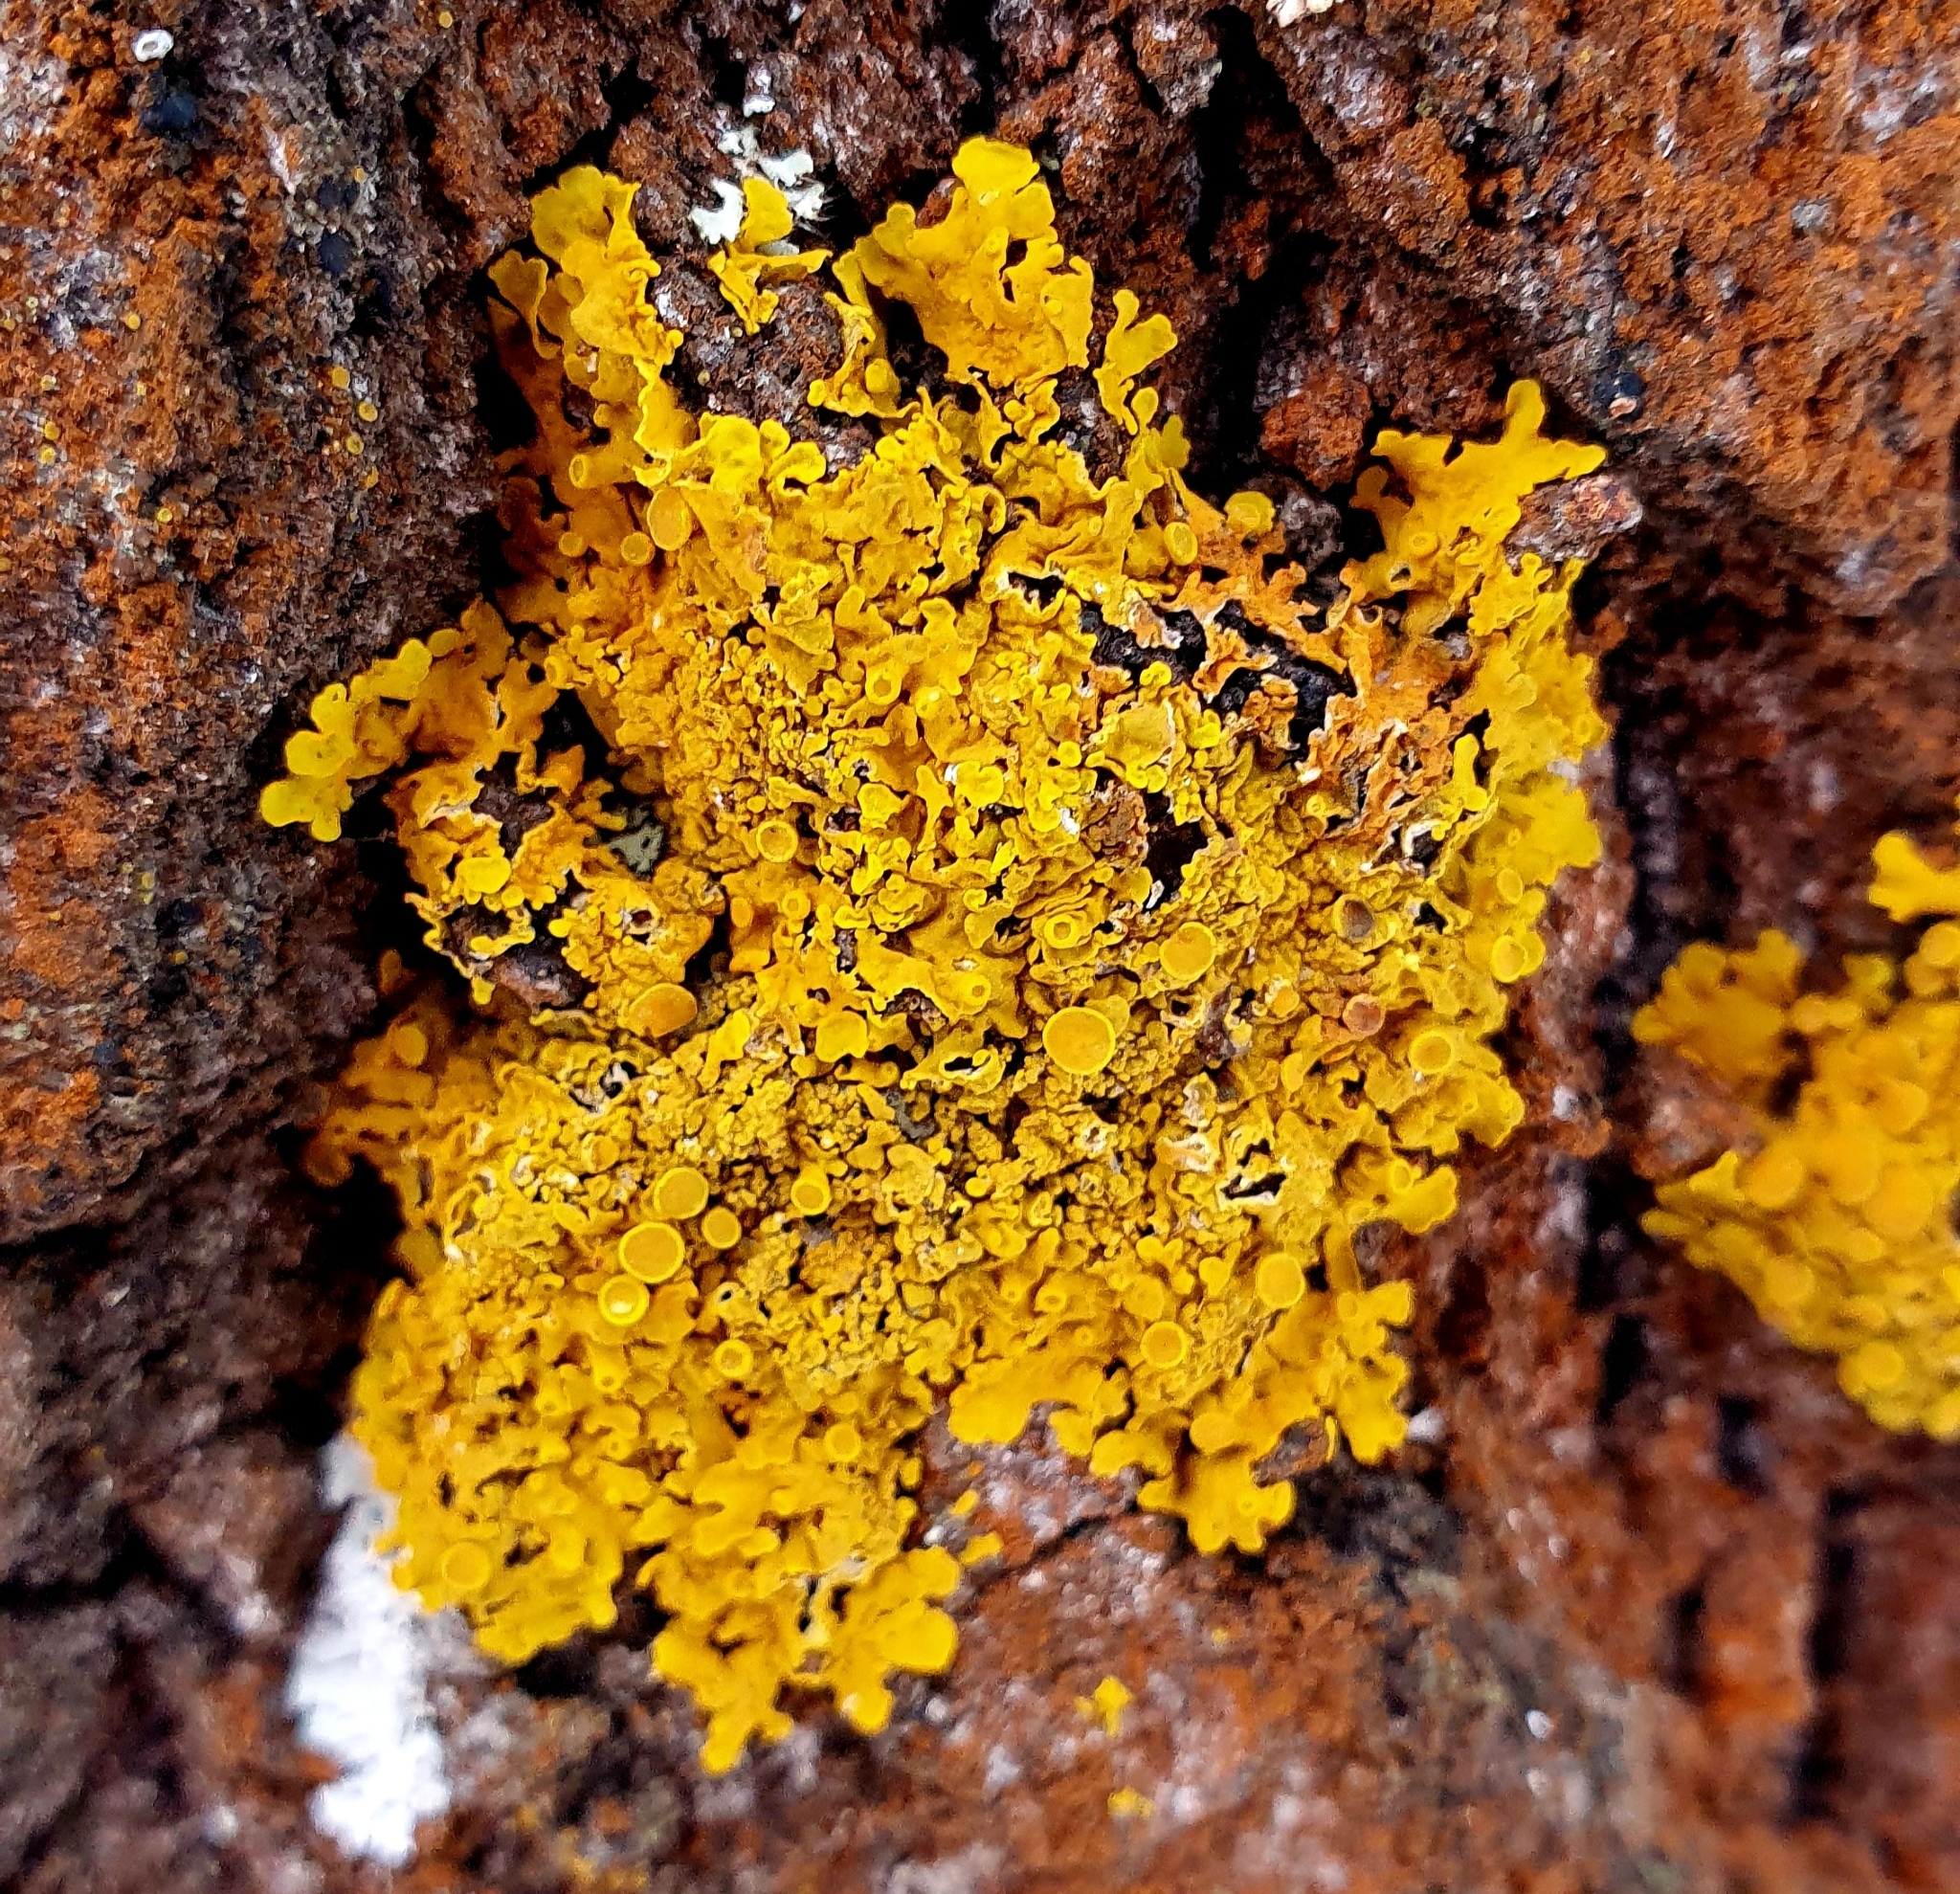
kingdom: Fungi
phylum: Ascomycota
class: Lecanoromycetes
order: Teloschistales
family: Teloschistaceae
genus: Xanthoria
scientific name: Xanthoria parietina
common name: Common orange lichen
